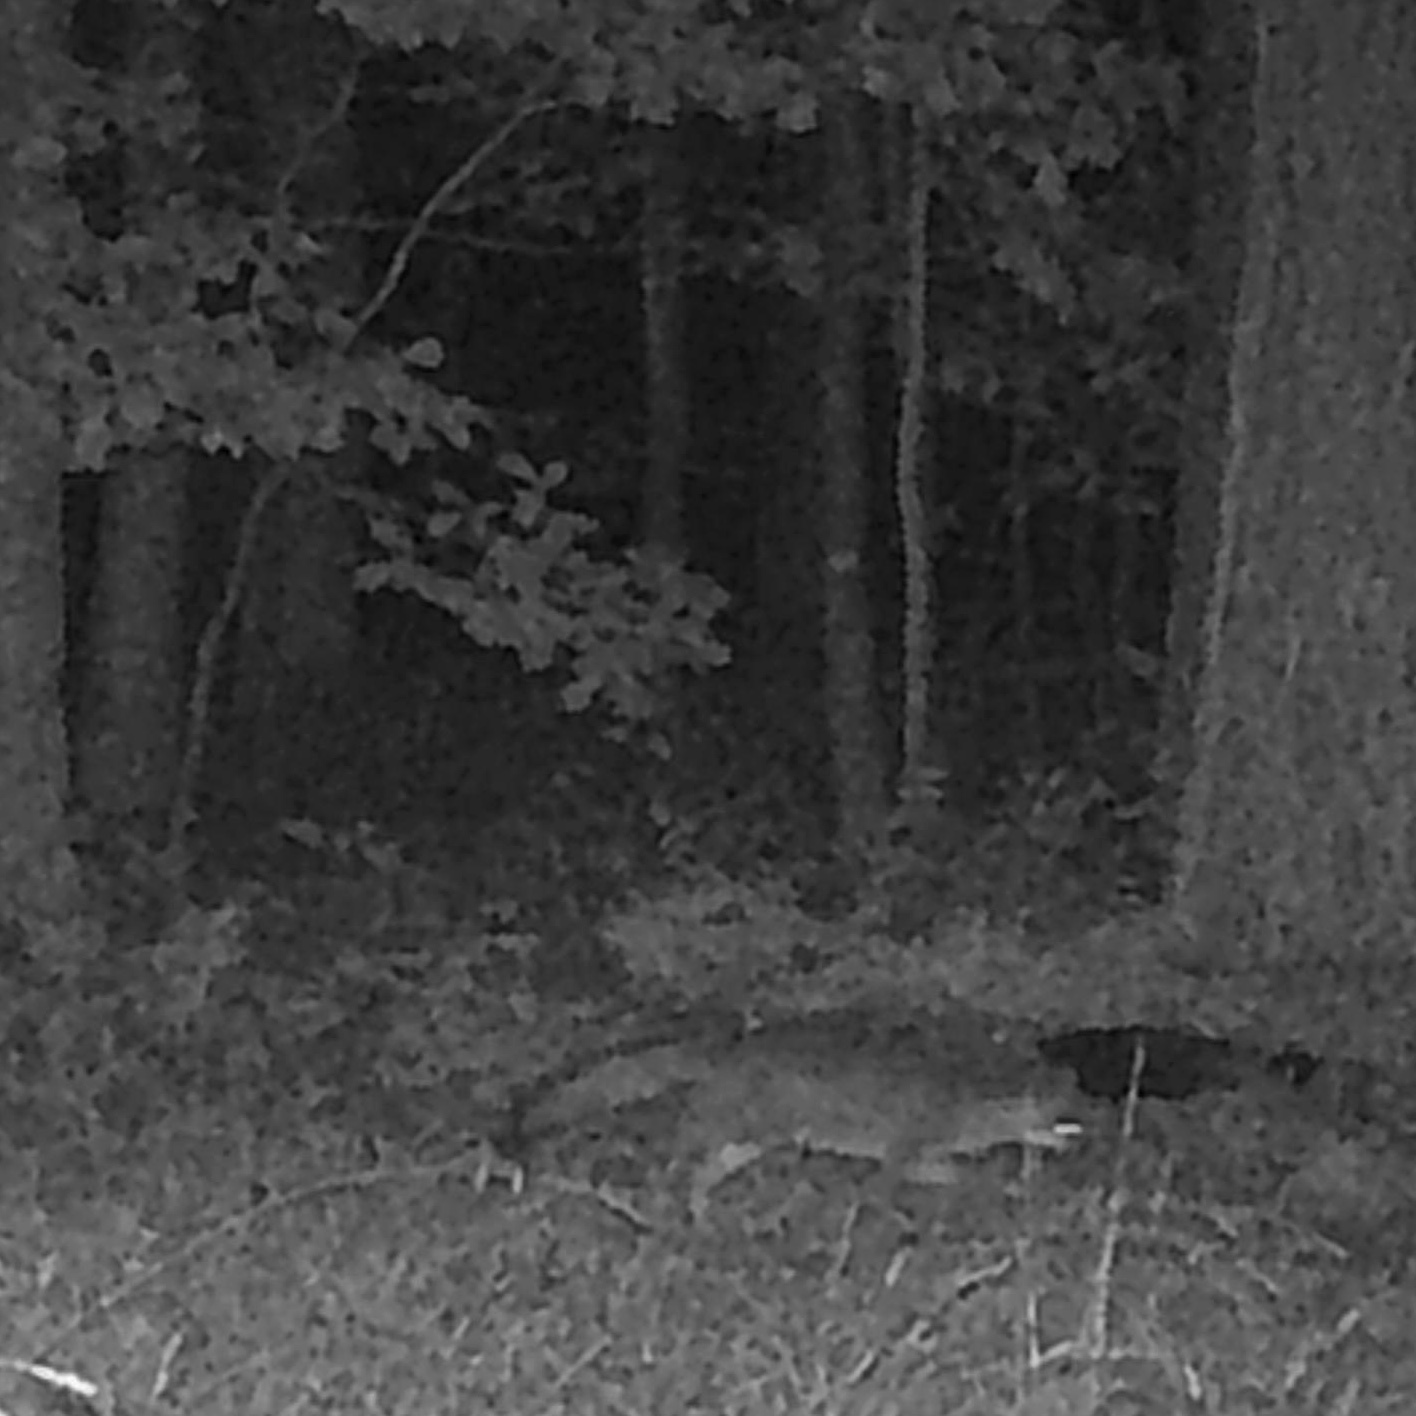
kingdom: Animalia
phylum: Chordata
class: Mammalia
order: Carnivora
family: Canidae
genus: Urocyon
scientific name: Urocyon cinereoargenteus
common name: Gray fox
